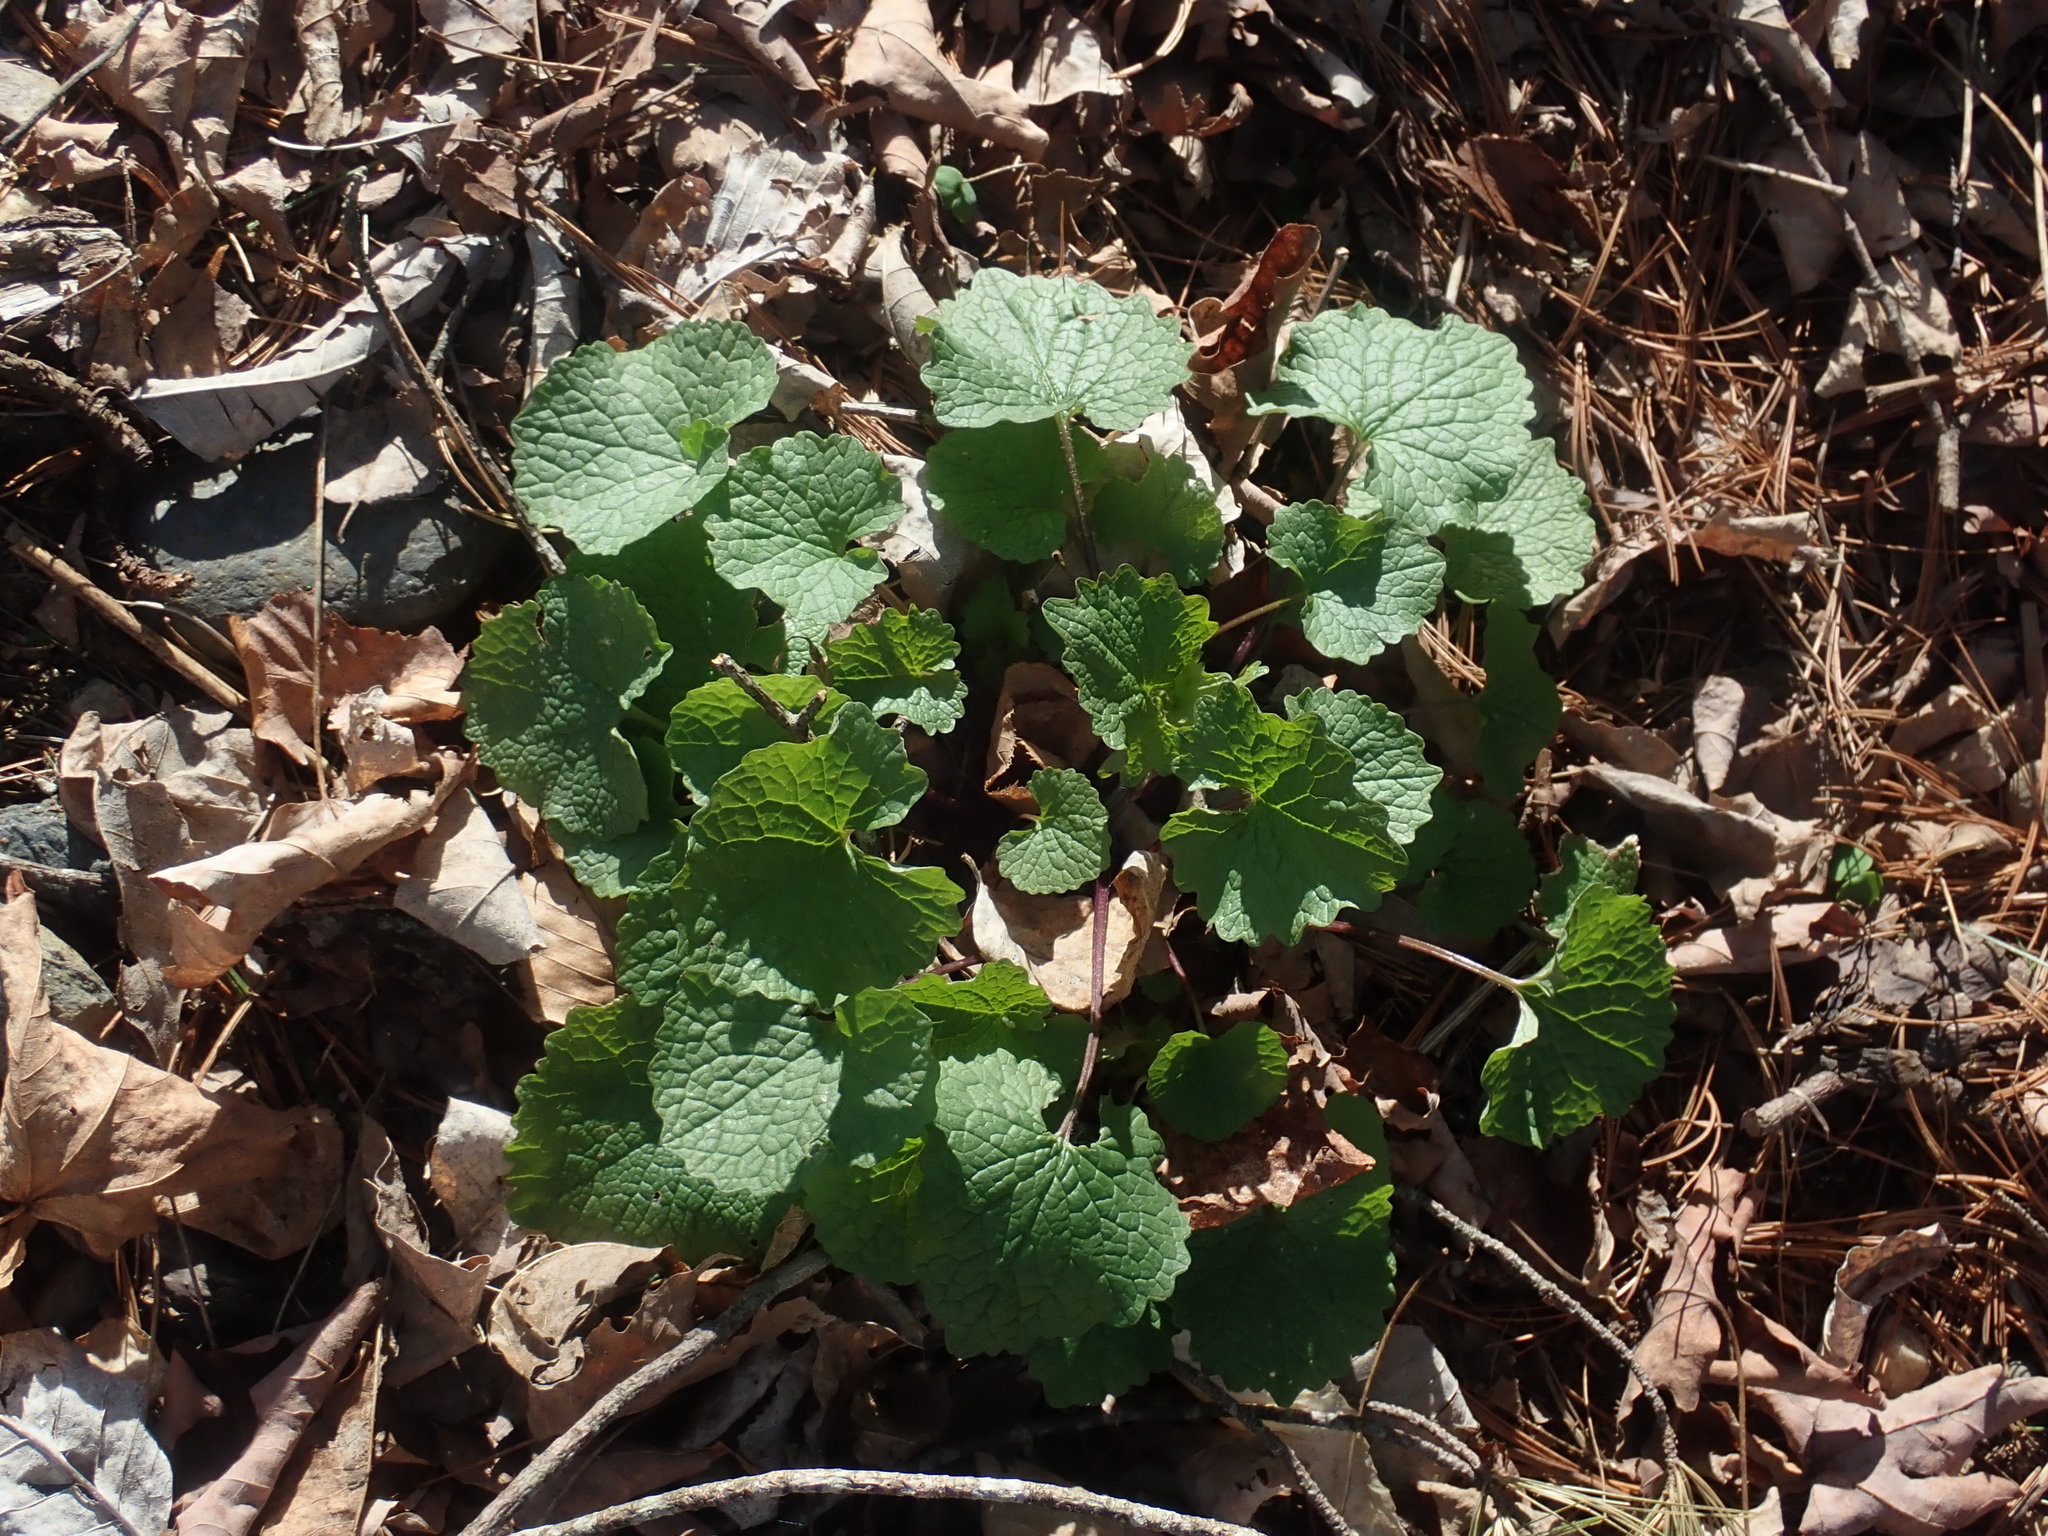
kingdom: Plantae
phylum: Tracheophyta
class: Magnoliopsida
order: Brassicales
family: Brassicaceae
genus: Alliaria
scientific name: Alliaria petiolata
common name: Garlic mustard
